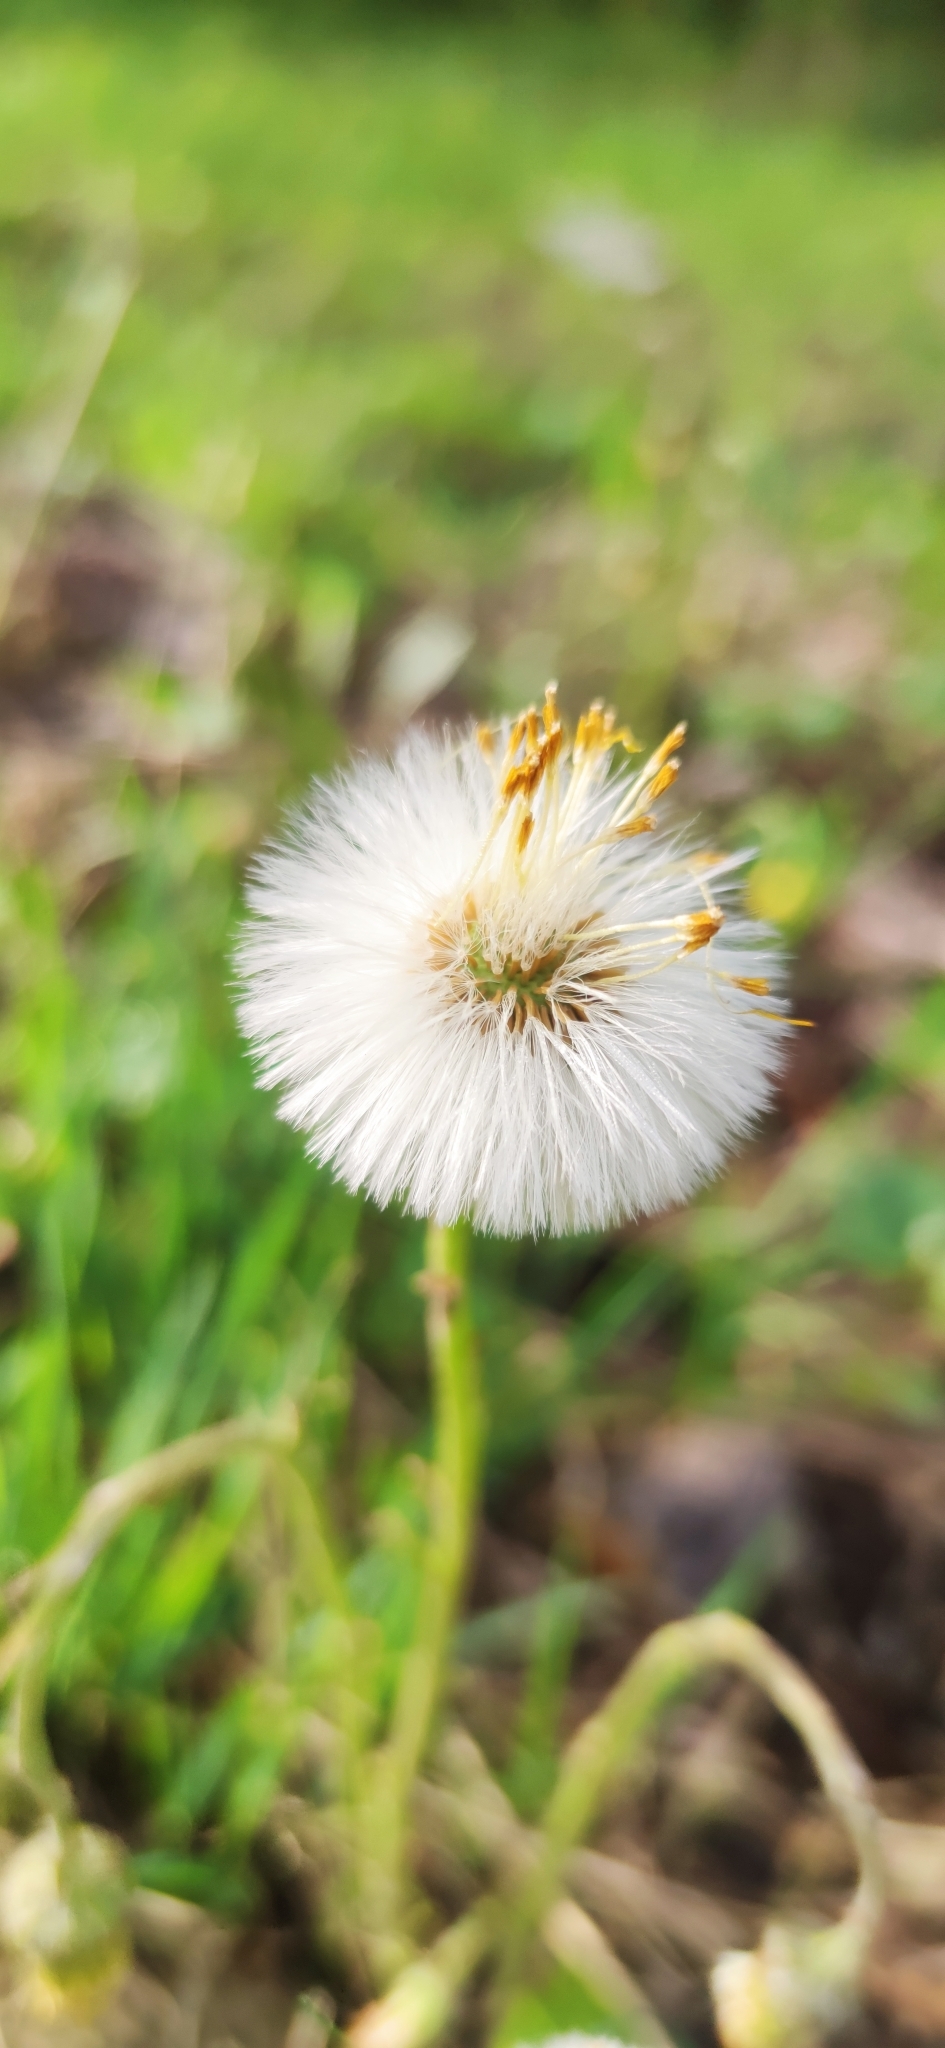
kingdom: Plantae
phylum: Tracheophyta
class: Magnoliopsida
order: Asterales
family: Asteraceae
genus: Tussilago
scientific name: Tussilago farfara
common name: Coltsfoot
